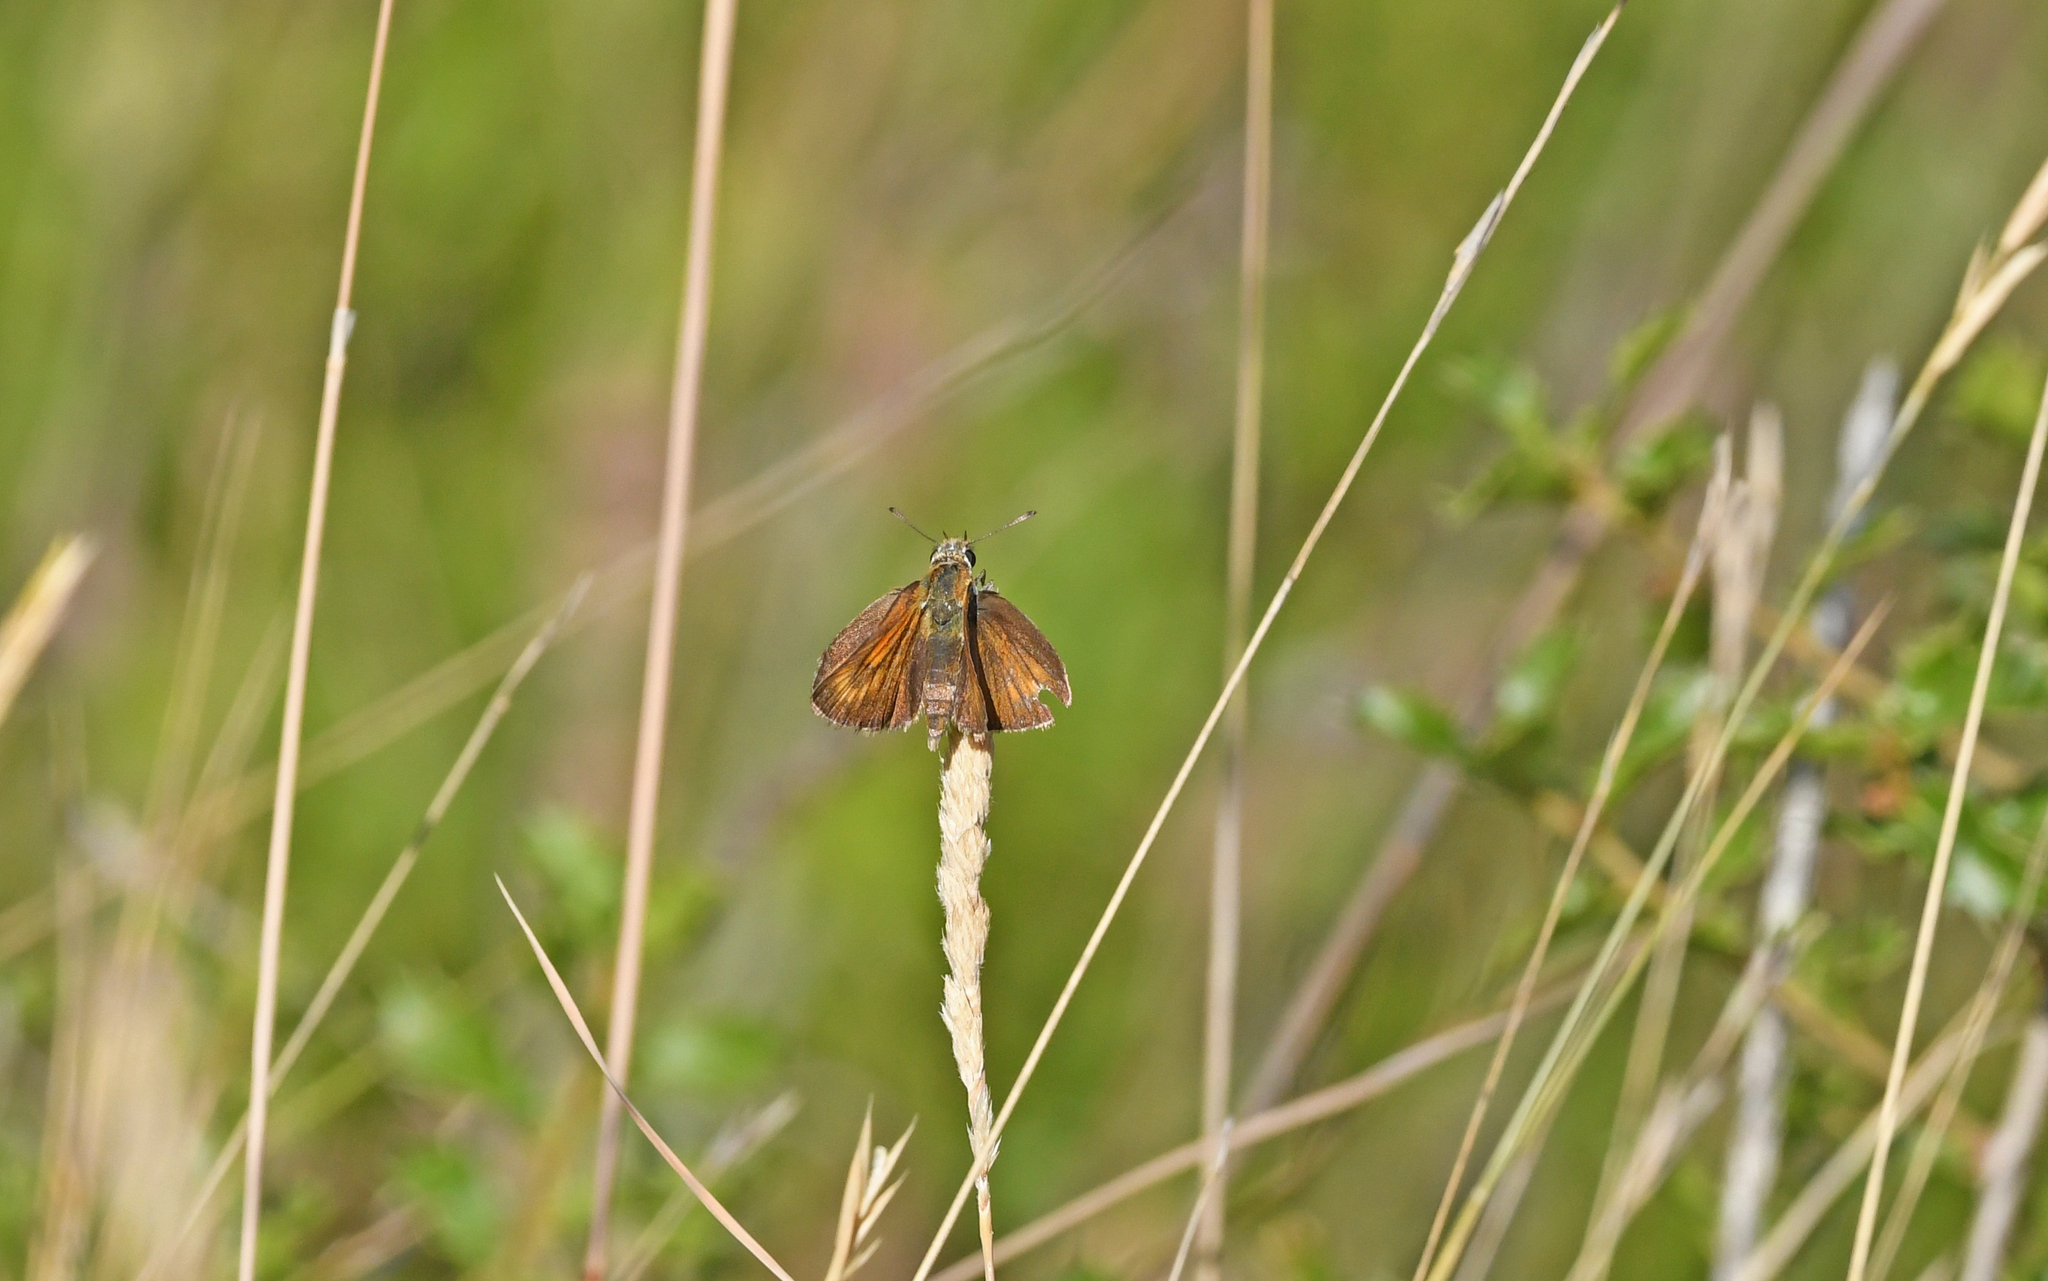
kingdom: Animalia
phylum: Arthropoda
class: Insecta
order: Lepidoptera
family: Hesperiidae
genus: Thymelicus
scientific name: Thymelicus acteon
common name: Lulworth skipper
